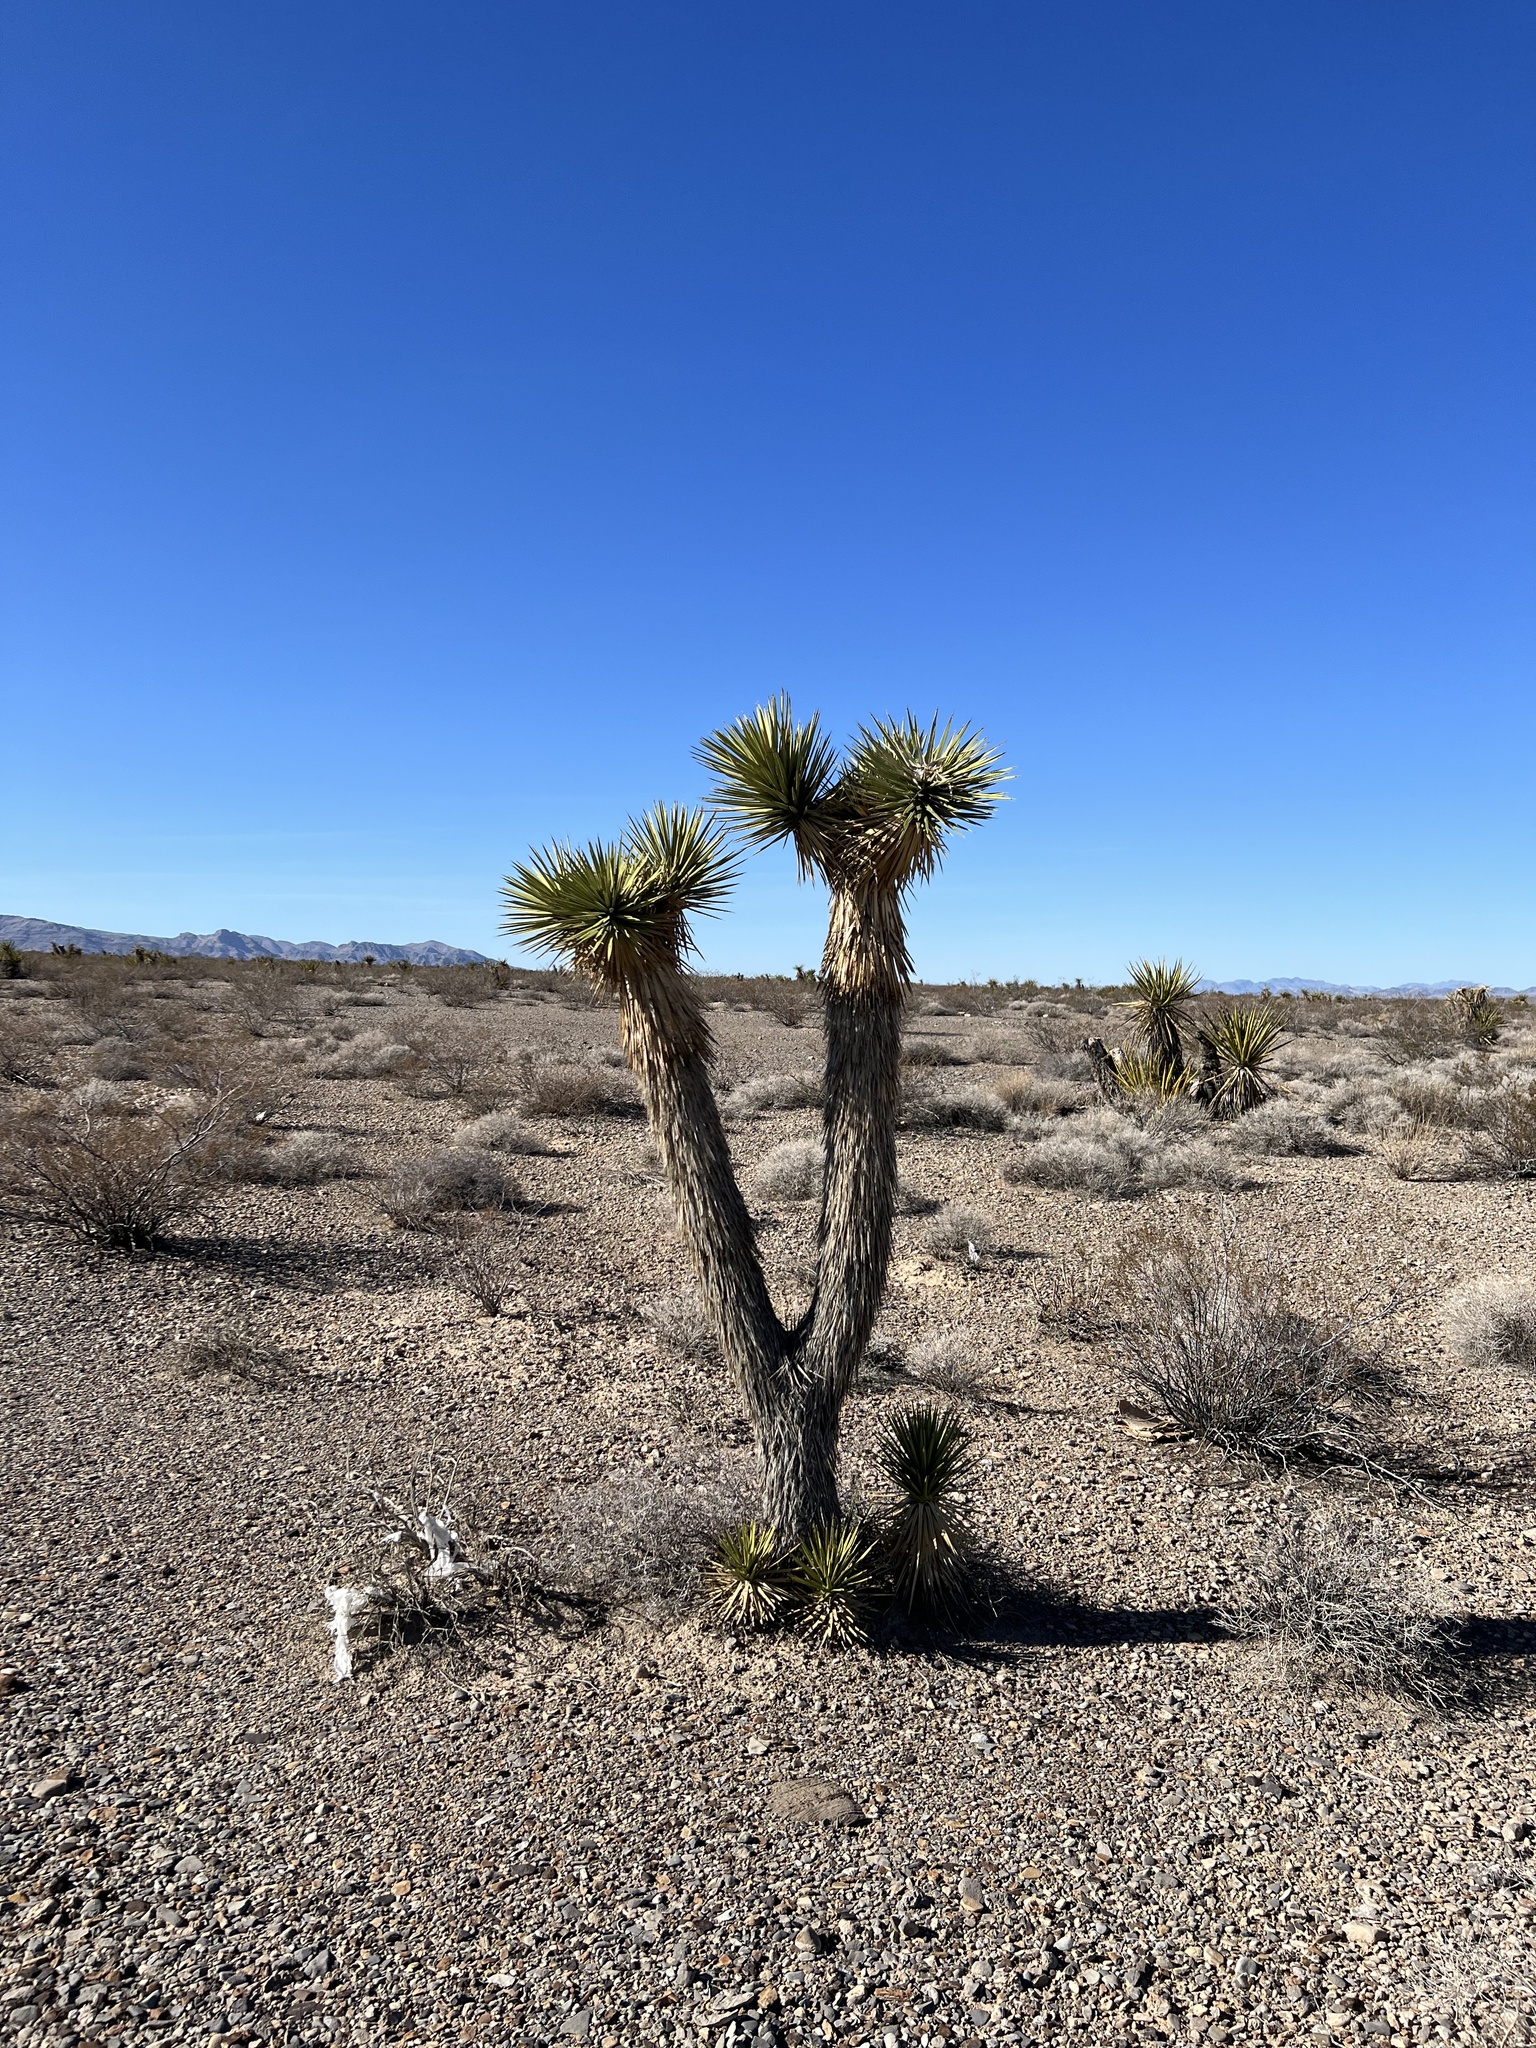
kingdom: Plantae
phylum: Tracheophyta
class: Liliopsida
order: Asparagales
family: Asparagaceae
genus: Yucca
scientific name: Yucca brevifolia
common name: Joshua tree
